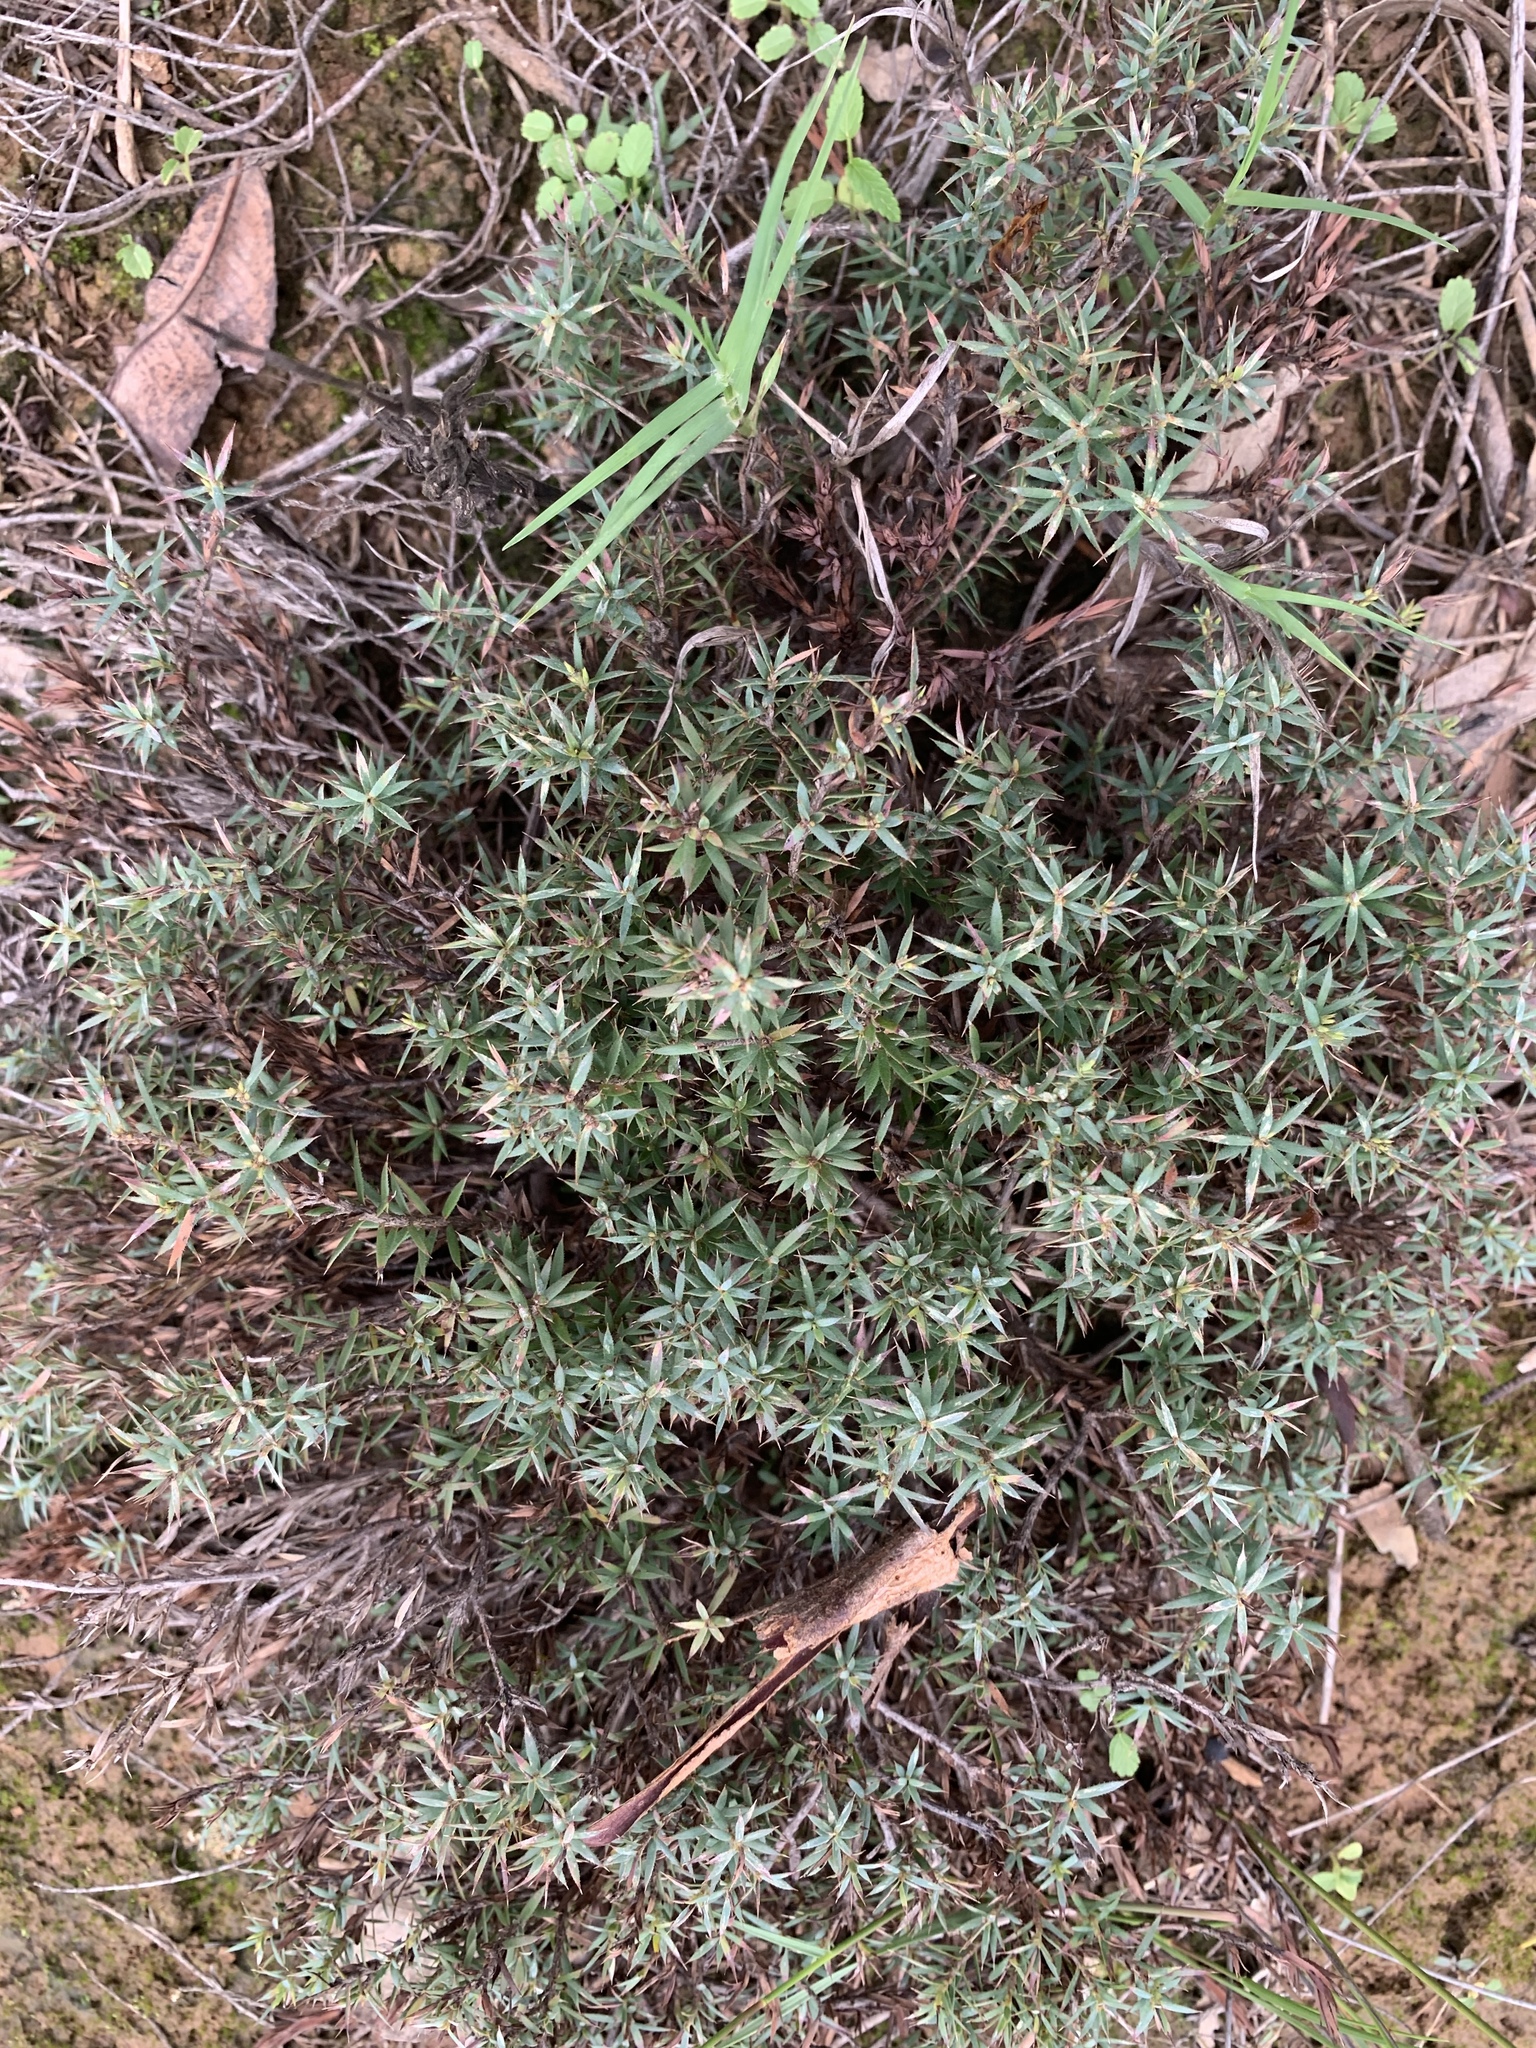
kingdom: Plantae
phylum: Tracheophyta
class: Magnoliopsida
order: Ericales
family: Ericaceae
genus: Styphelia
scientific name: Styphelia humifusa
